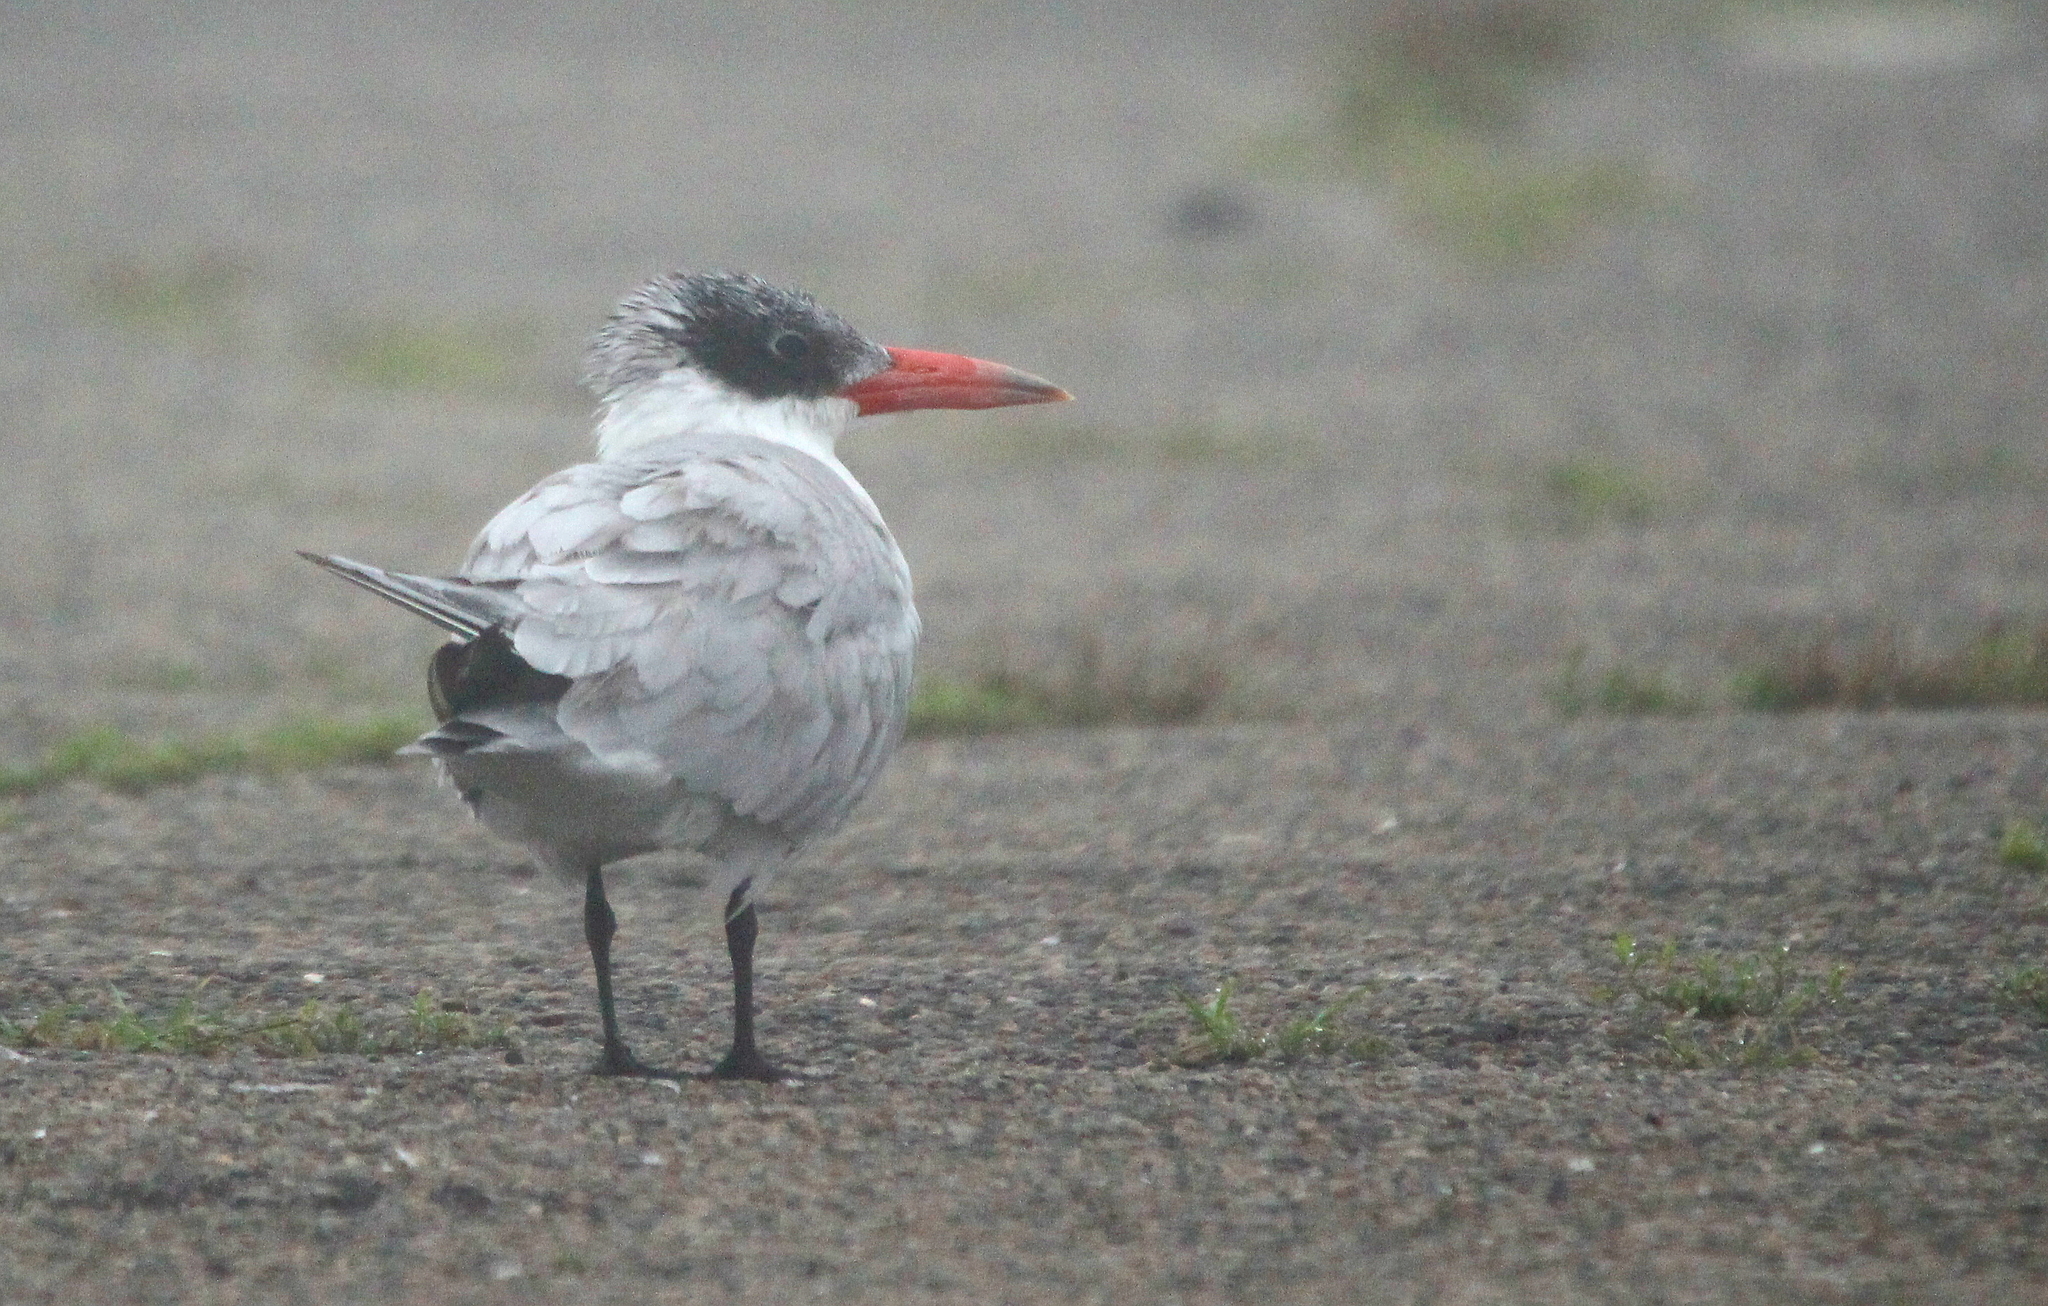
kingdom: Animalia
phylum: Chordata
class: Aves
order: Charadriiformes
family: Laridae
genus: Hydroprogne
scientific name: Hydroprogne caspia
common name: Caspian tern
